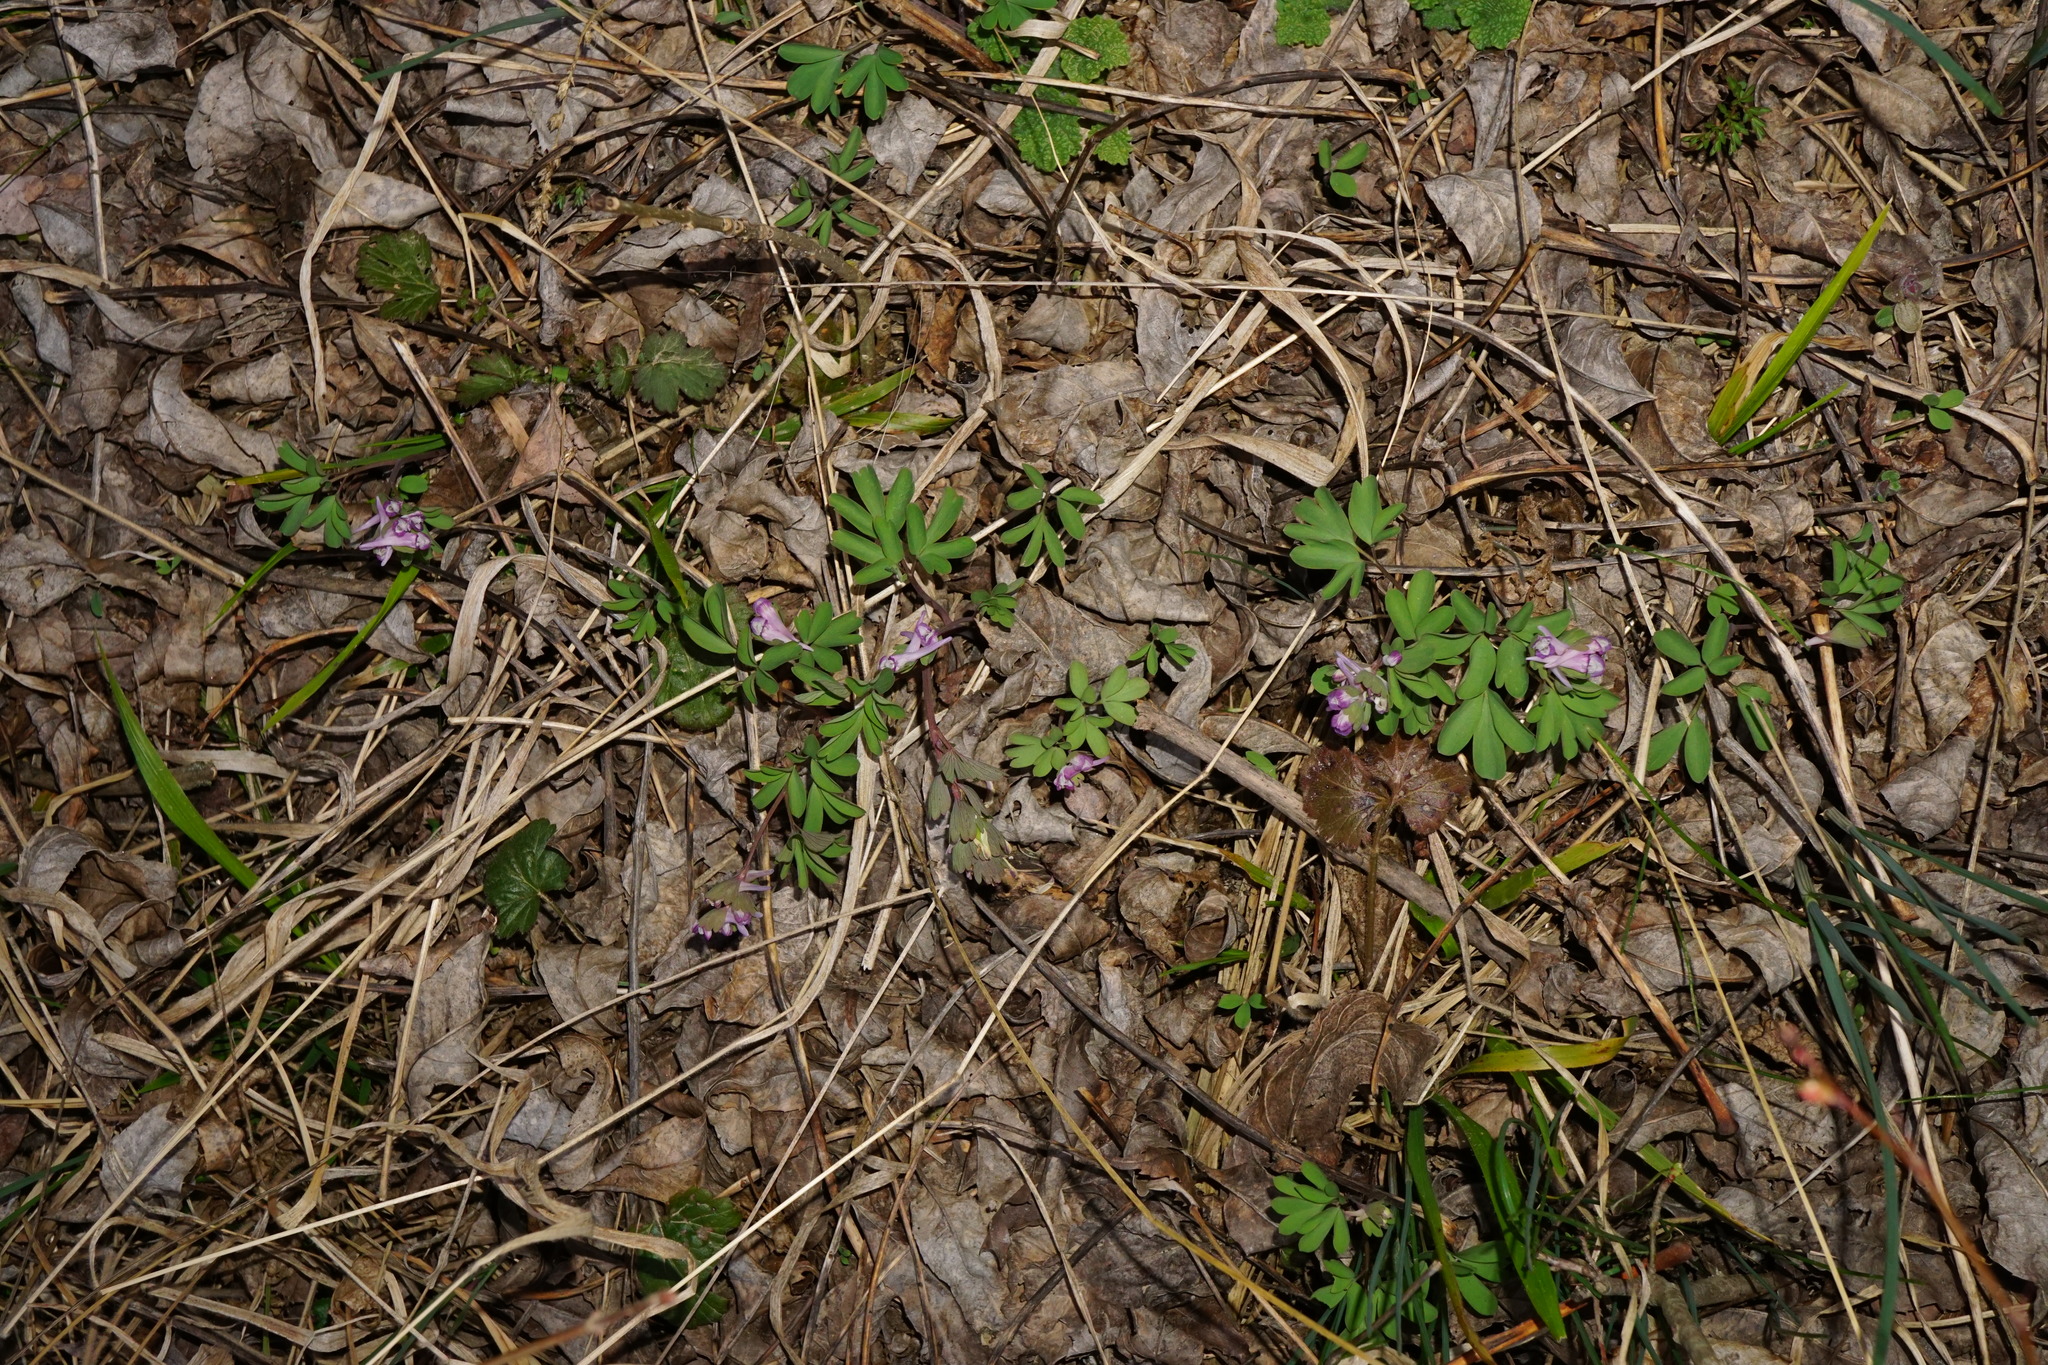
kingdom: Plantae
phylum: Tracheophyta
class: Magnoliopsida
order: Ranunculales
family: Papaveraceae
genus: Corydalis
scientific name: Corydalis pumila
